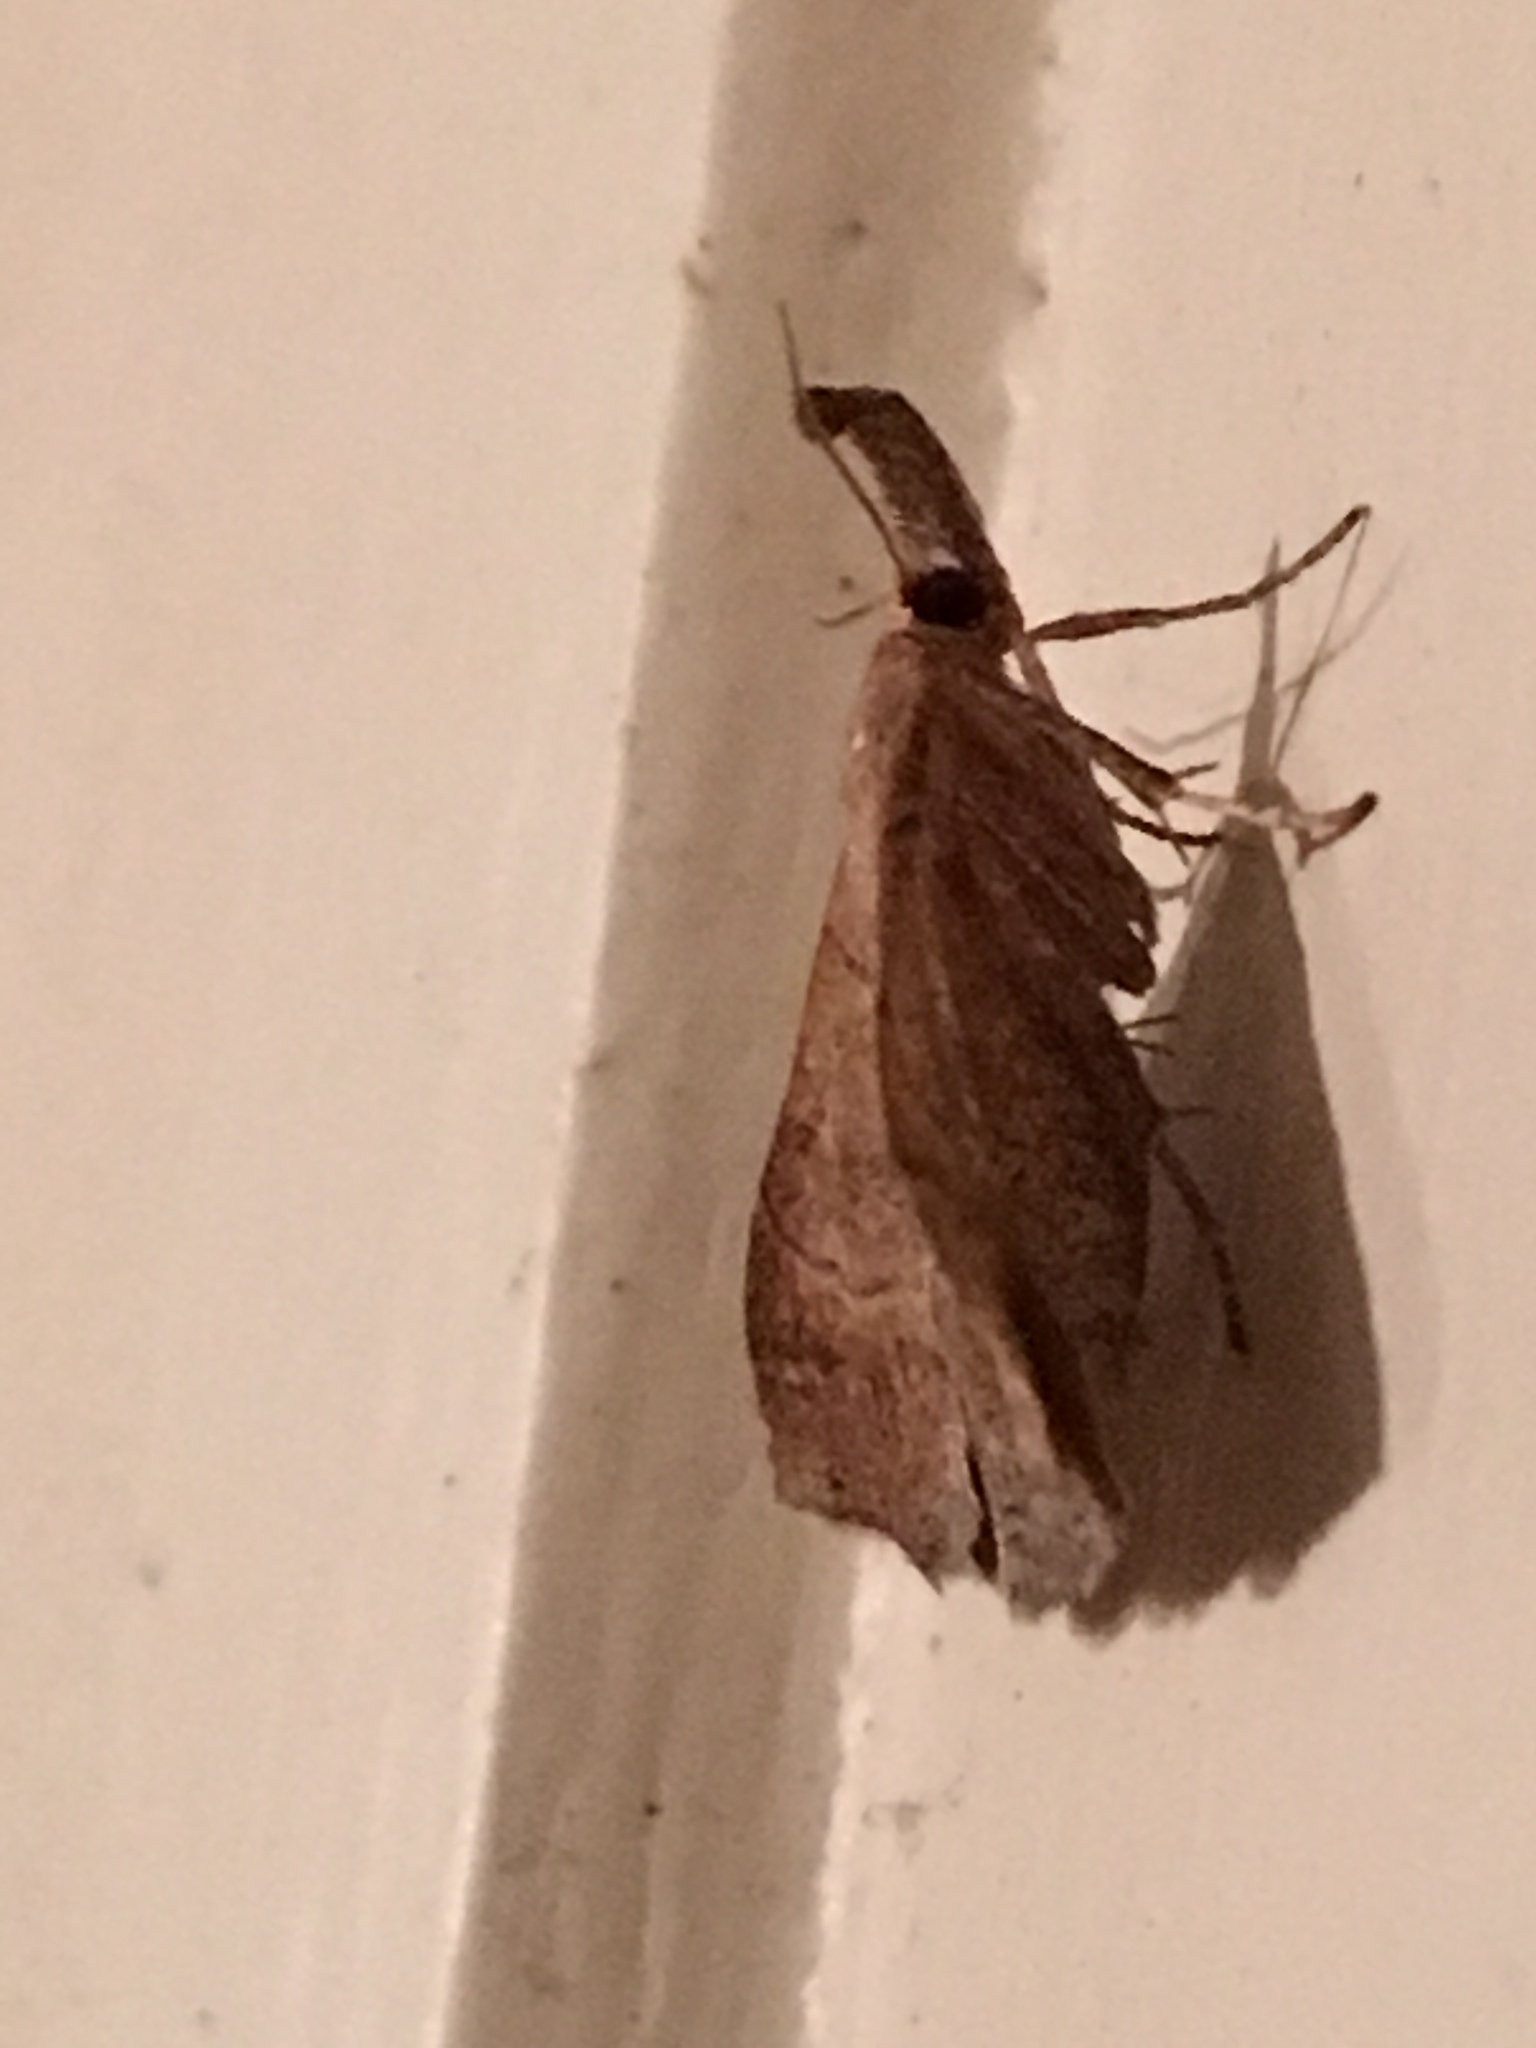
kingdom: Animalia
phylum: Arthropoda
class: Insecta
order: Lepidoptera
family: Erebidae
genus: Renia
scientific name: Renia flavipunctalis
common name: Yellow-spotted renia moth
